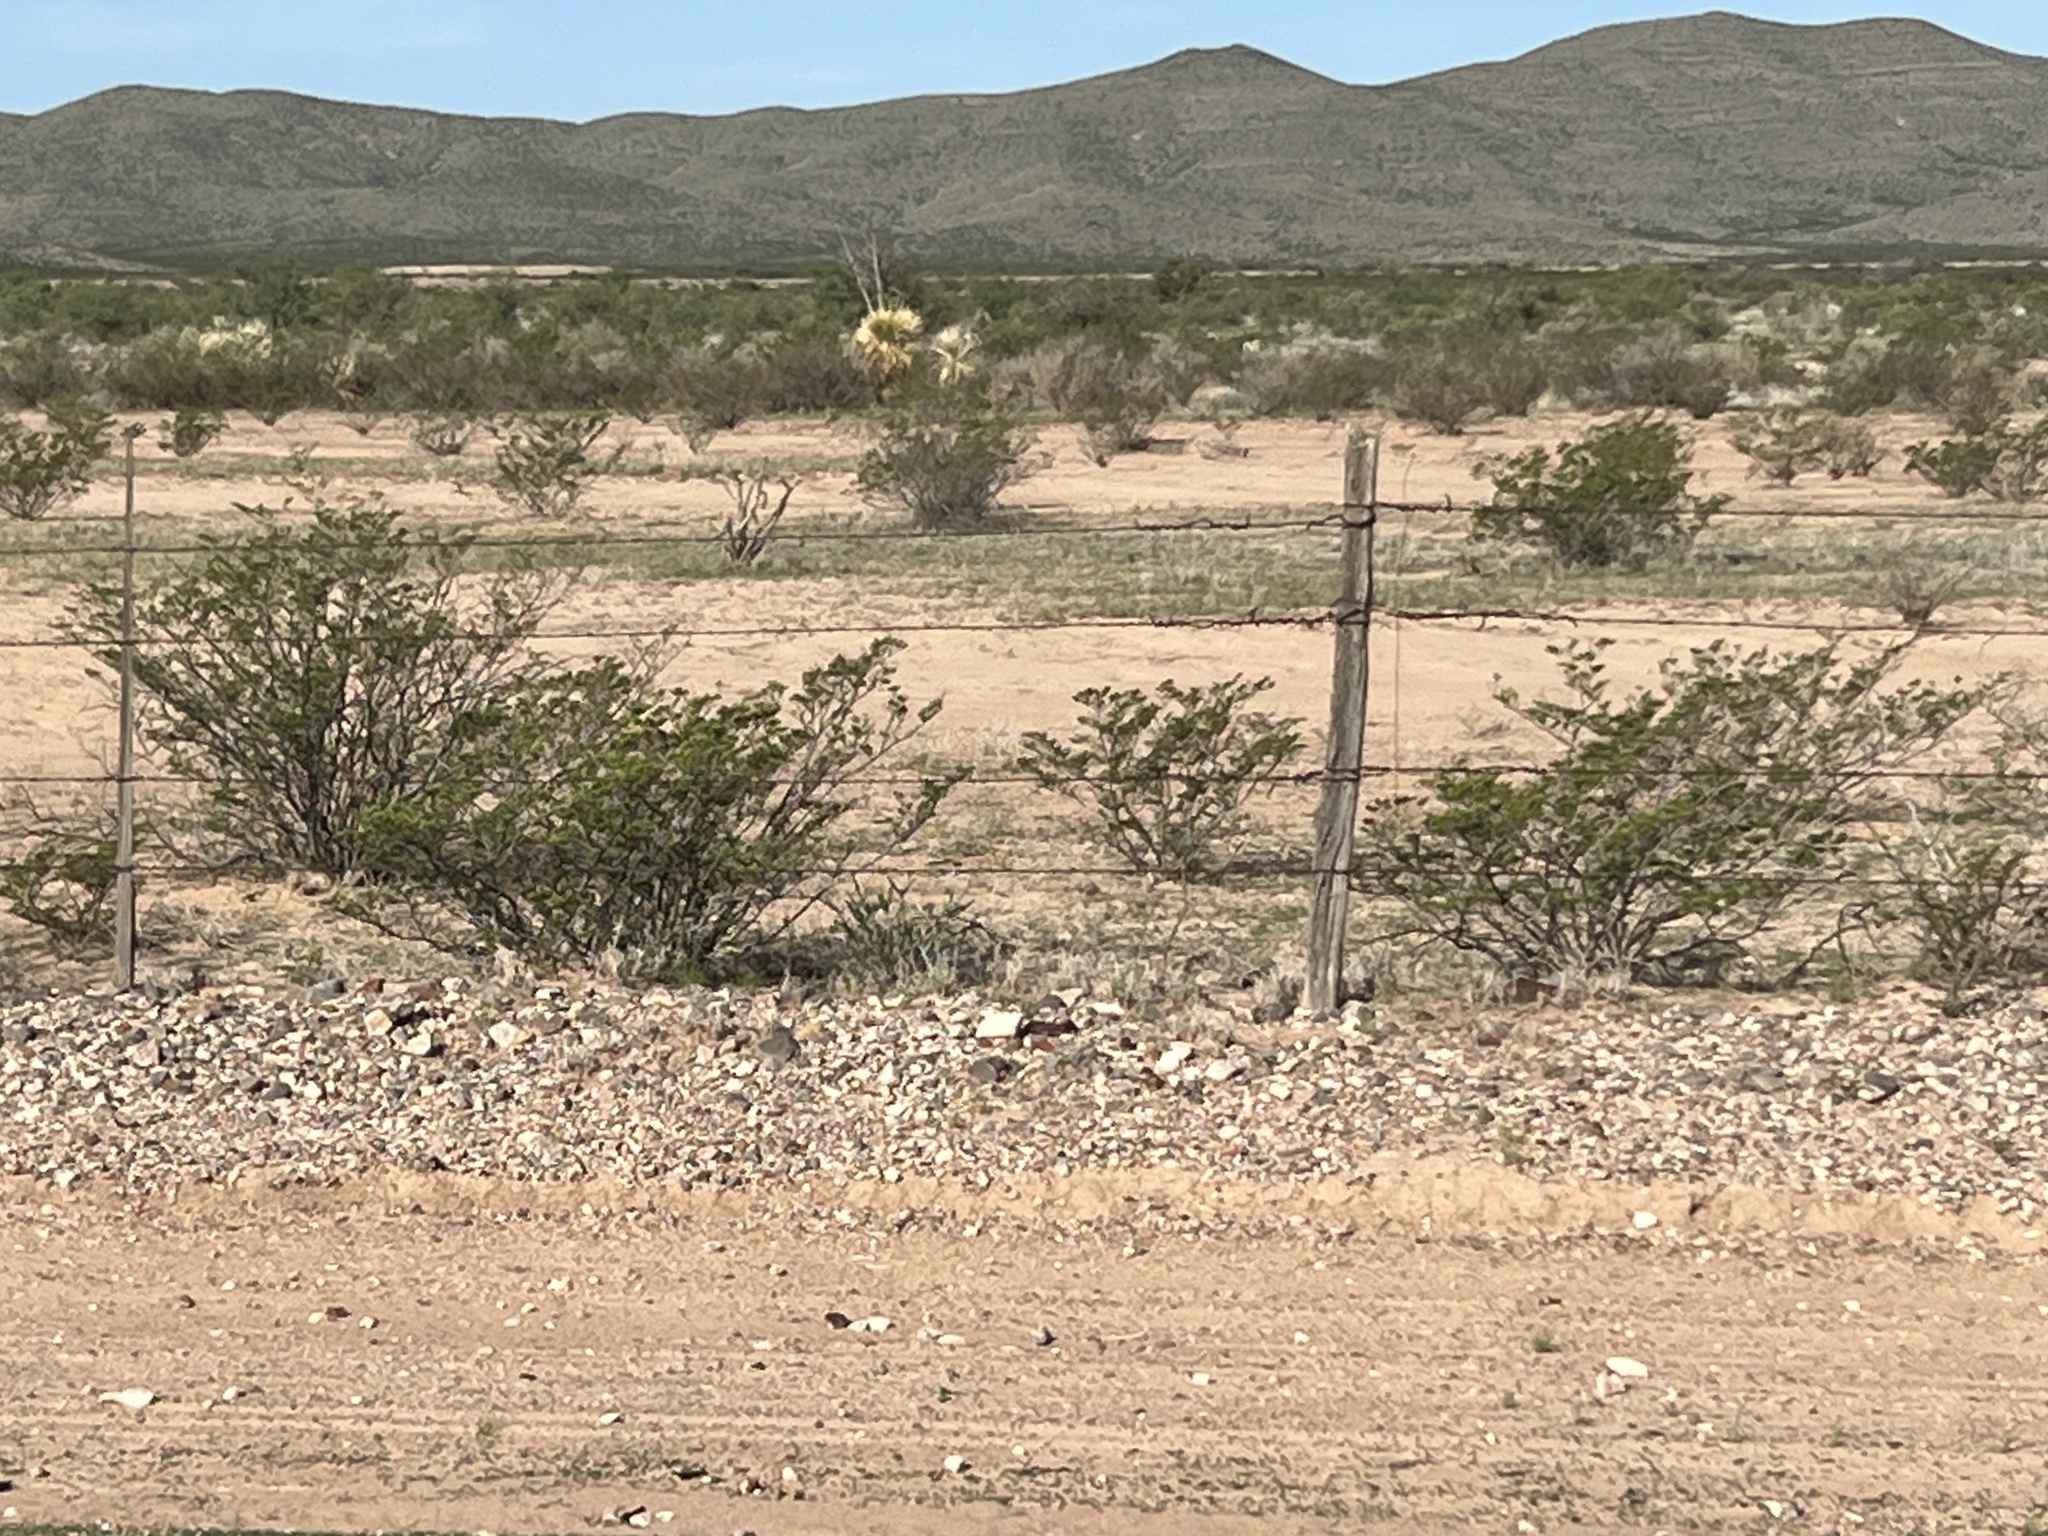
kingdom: Plantae
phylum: Tracheophyta
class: Magnoliopsida
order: Zygophyllales
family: Zygophyllaceae
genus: Larrea
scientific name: Larrea tridentata
